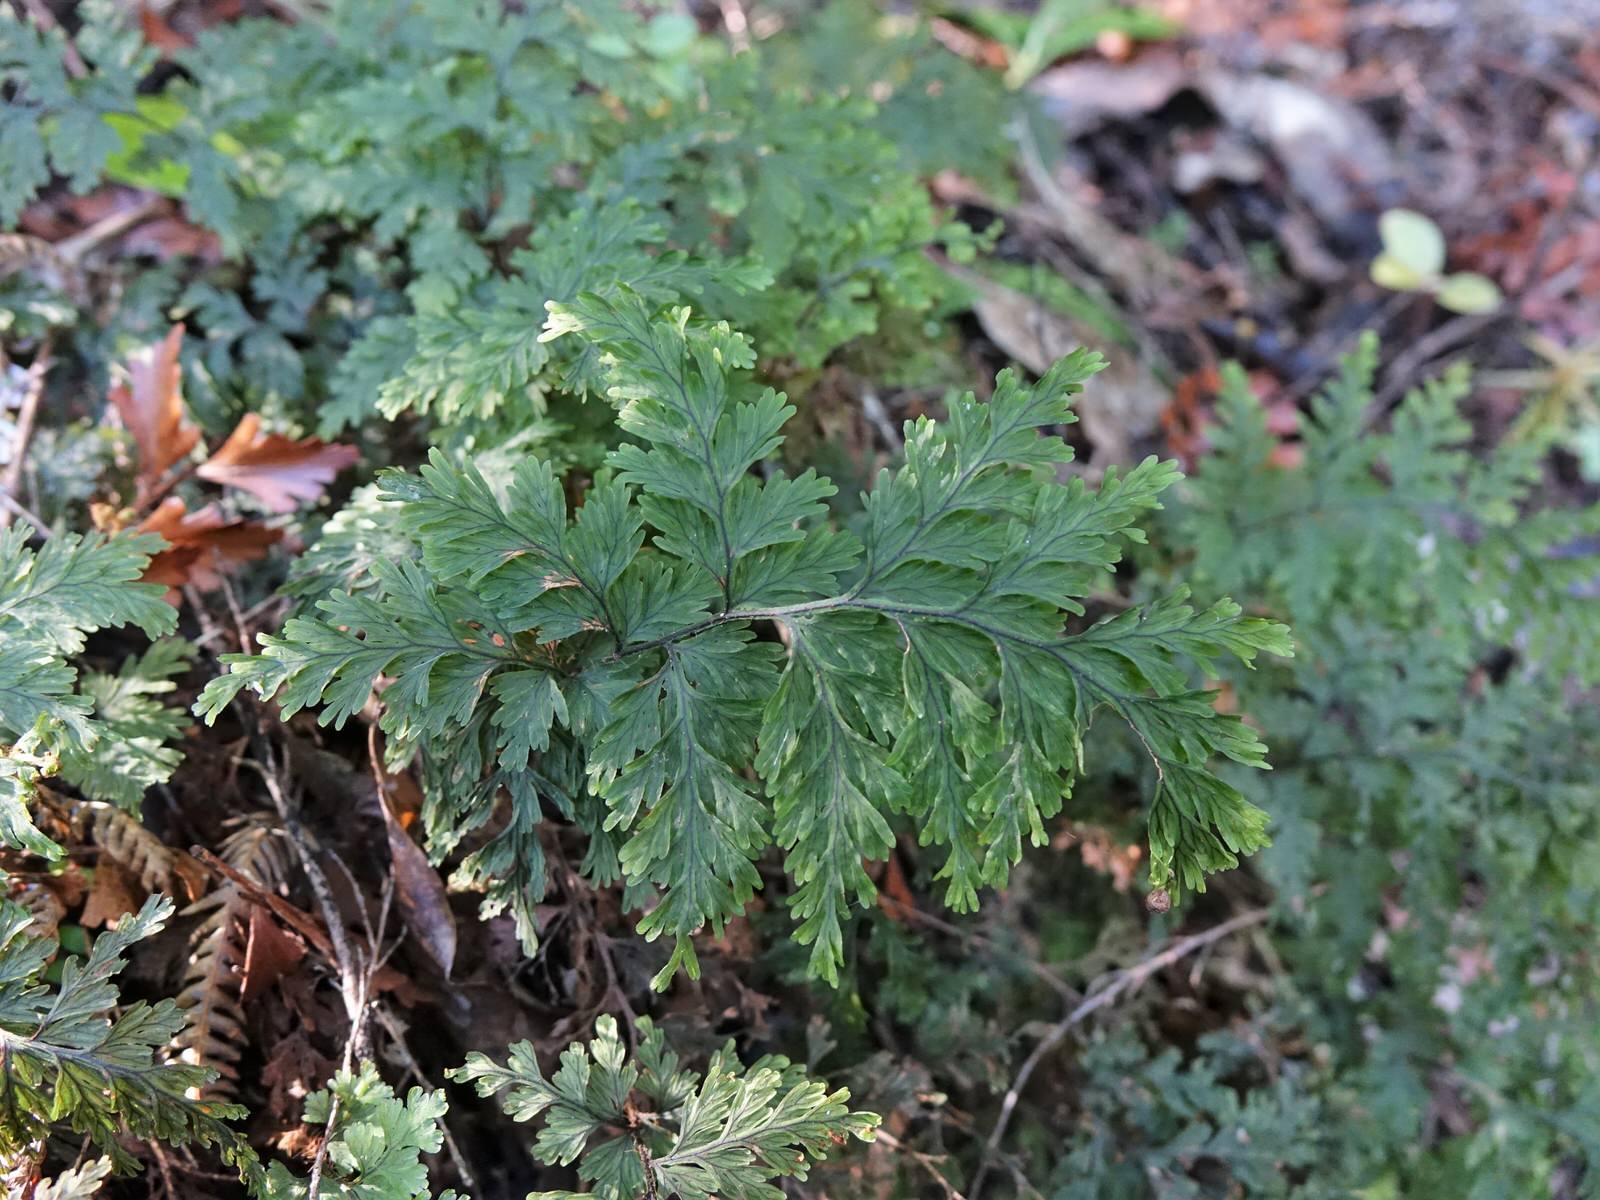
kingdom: Plantae
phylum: Tracheophyta
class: Polypodiopsida
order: Hymenophyllales
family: Hymenophyllaceae
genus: Hymenophyllum
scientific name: Hymenophyllum scabrum
